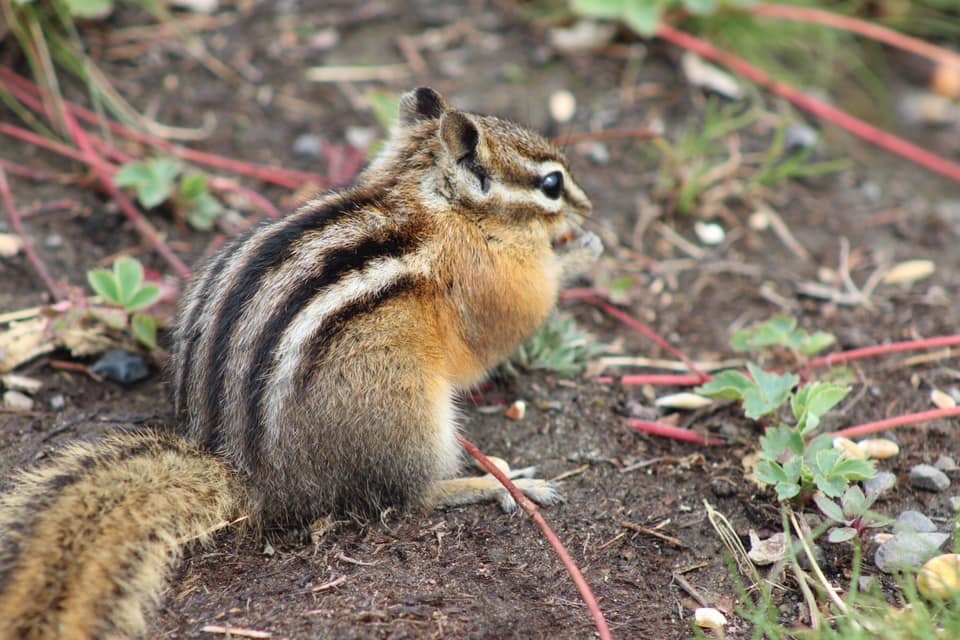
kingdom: Animalia
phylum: Chordata
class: Mammalia
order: Rodentia
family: Sciuridae
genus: Tamias
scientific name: Tamias amoenus
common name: Yellow-pine chipmunk
